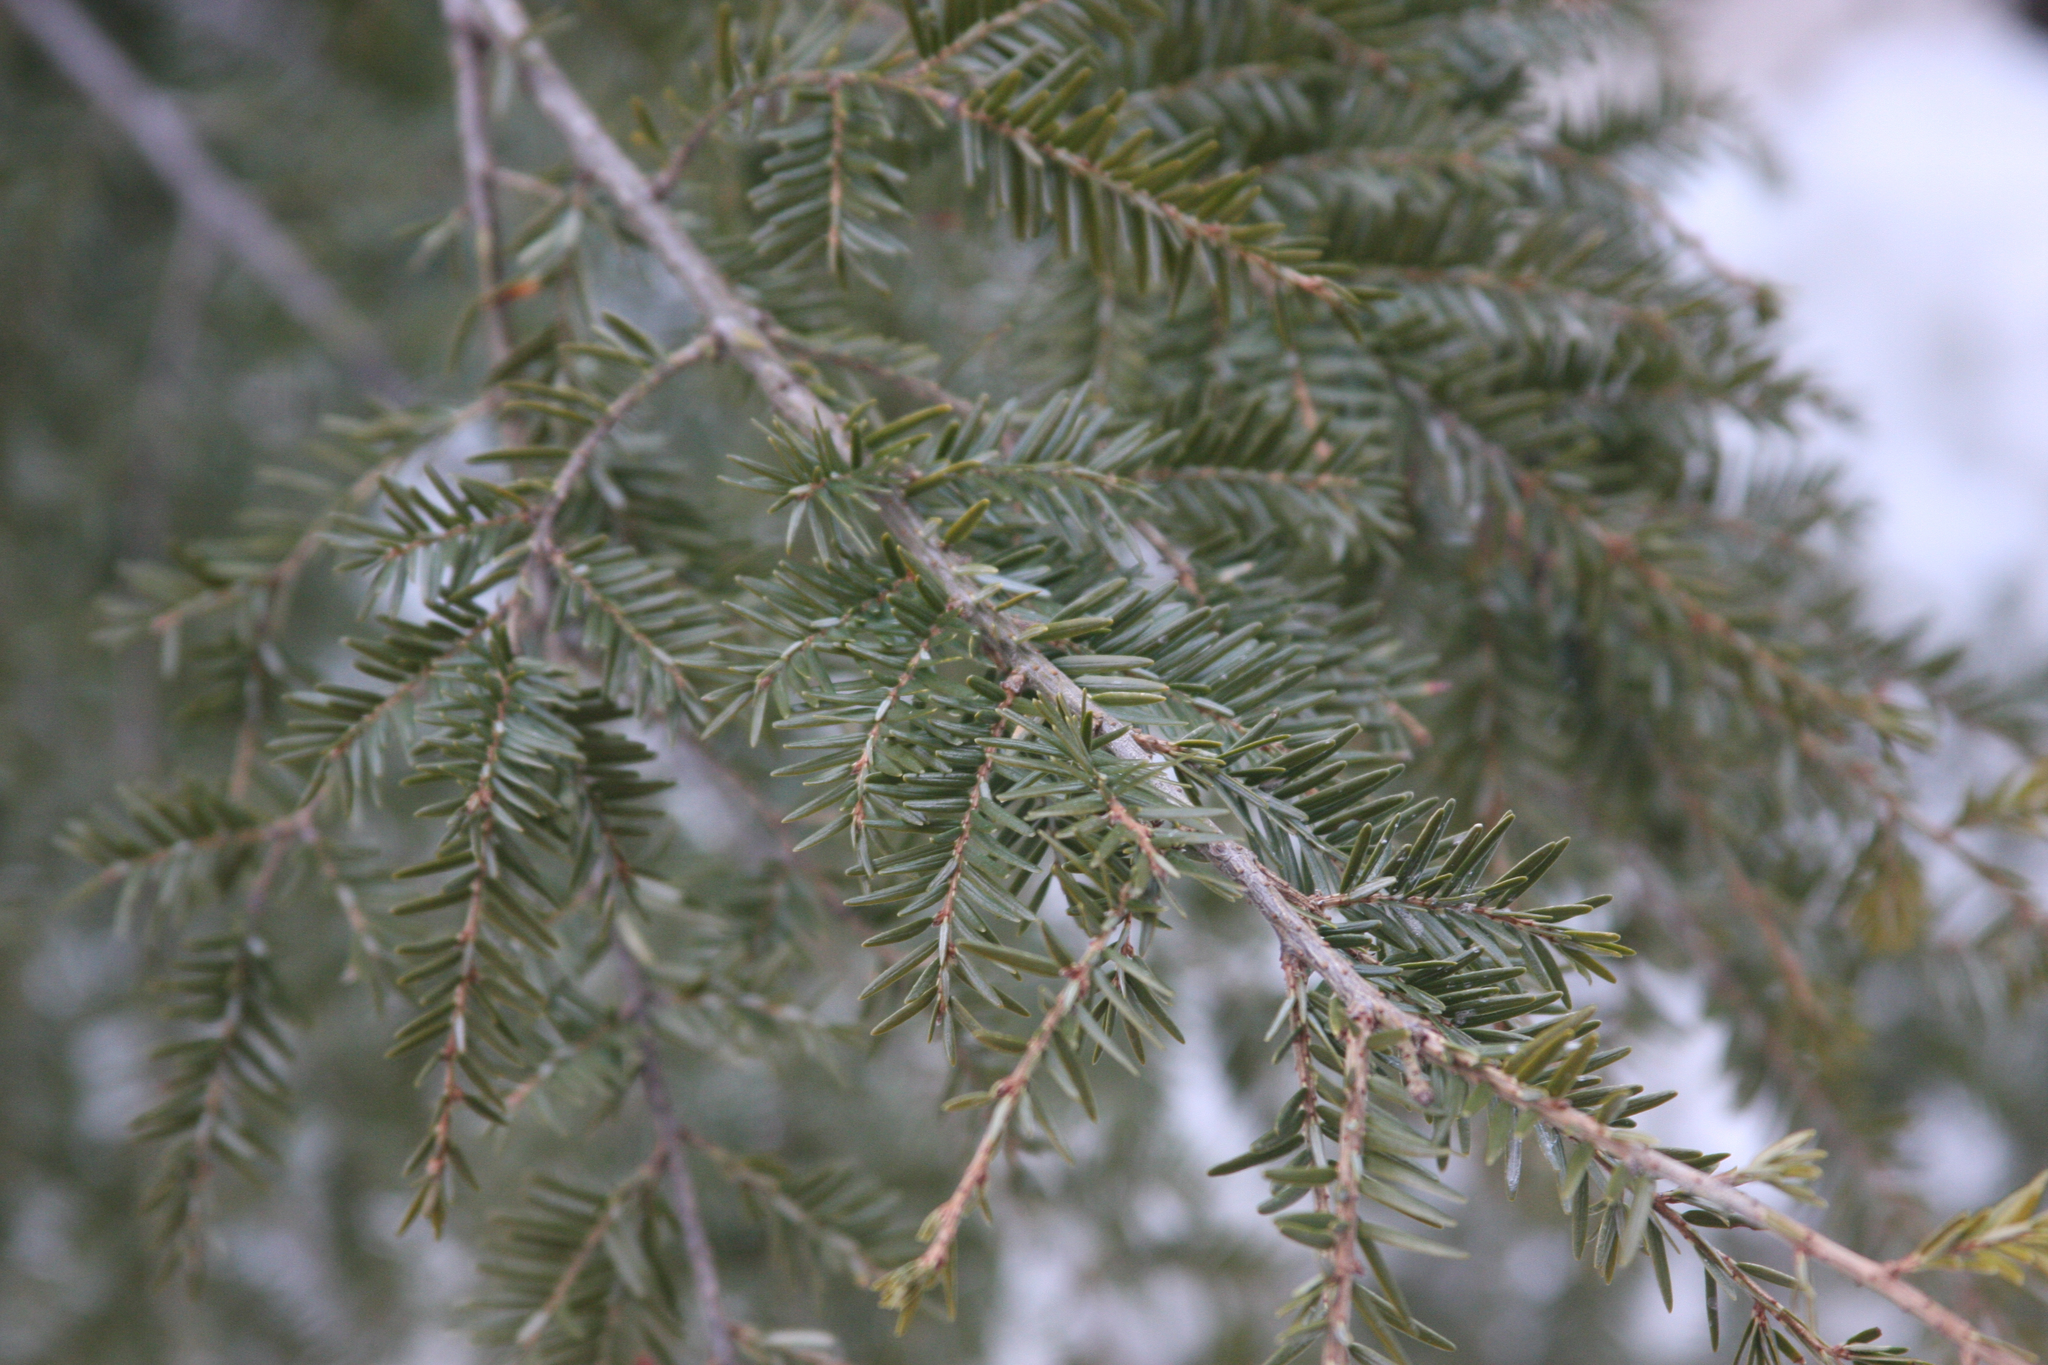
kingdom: Plantae
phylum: Tracheophyta
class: Pinopsida
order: Pinales
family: Pinaceae
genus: Tsuga
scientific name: Tsuga canadensis
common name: Eastern hemlock
